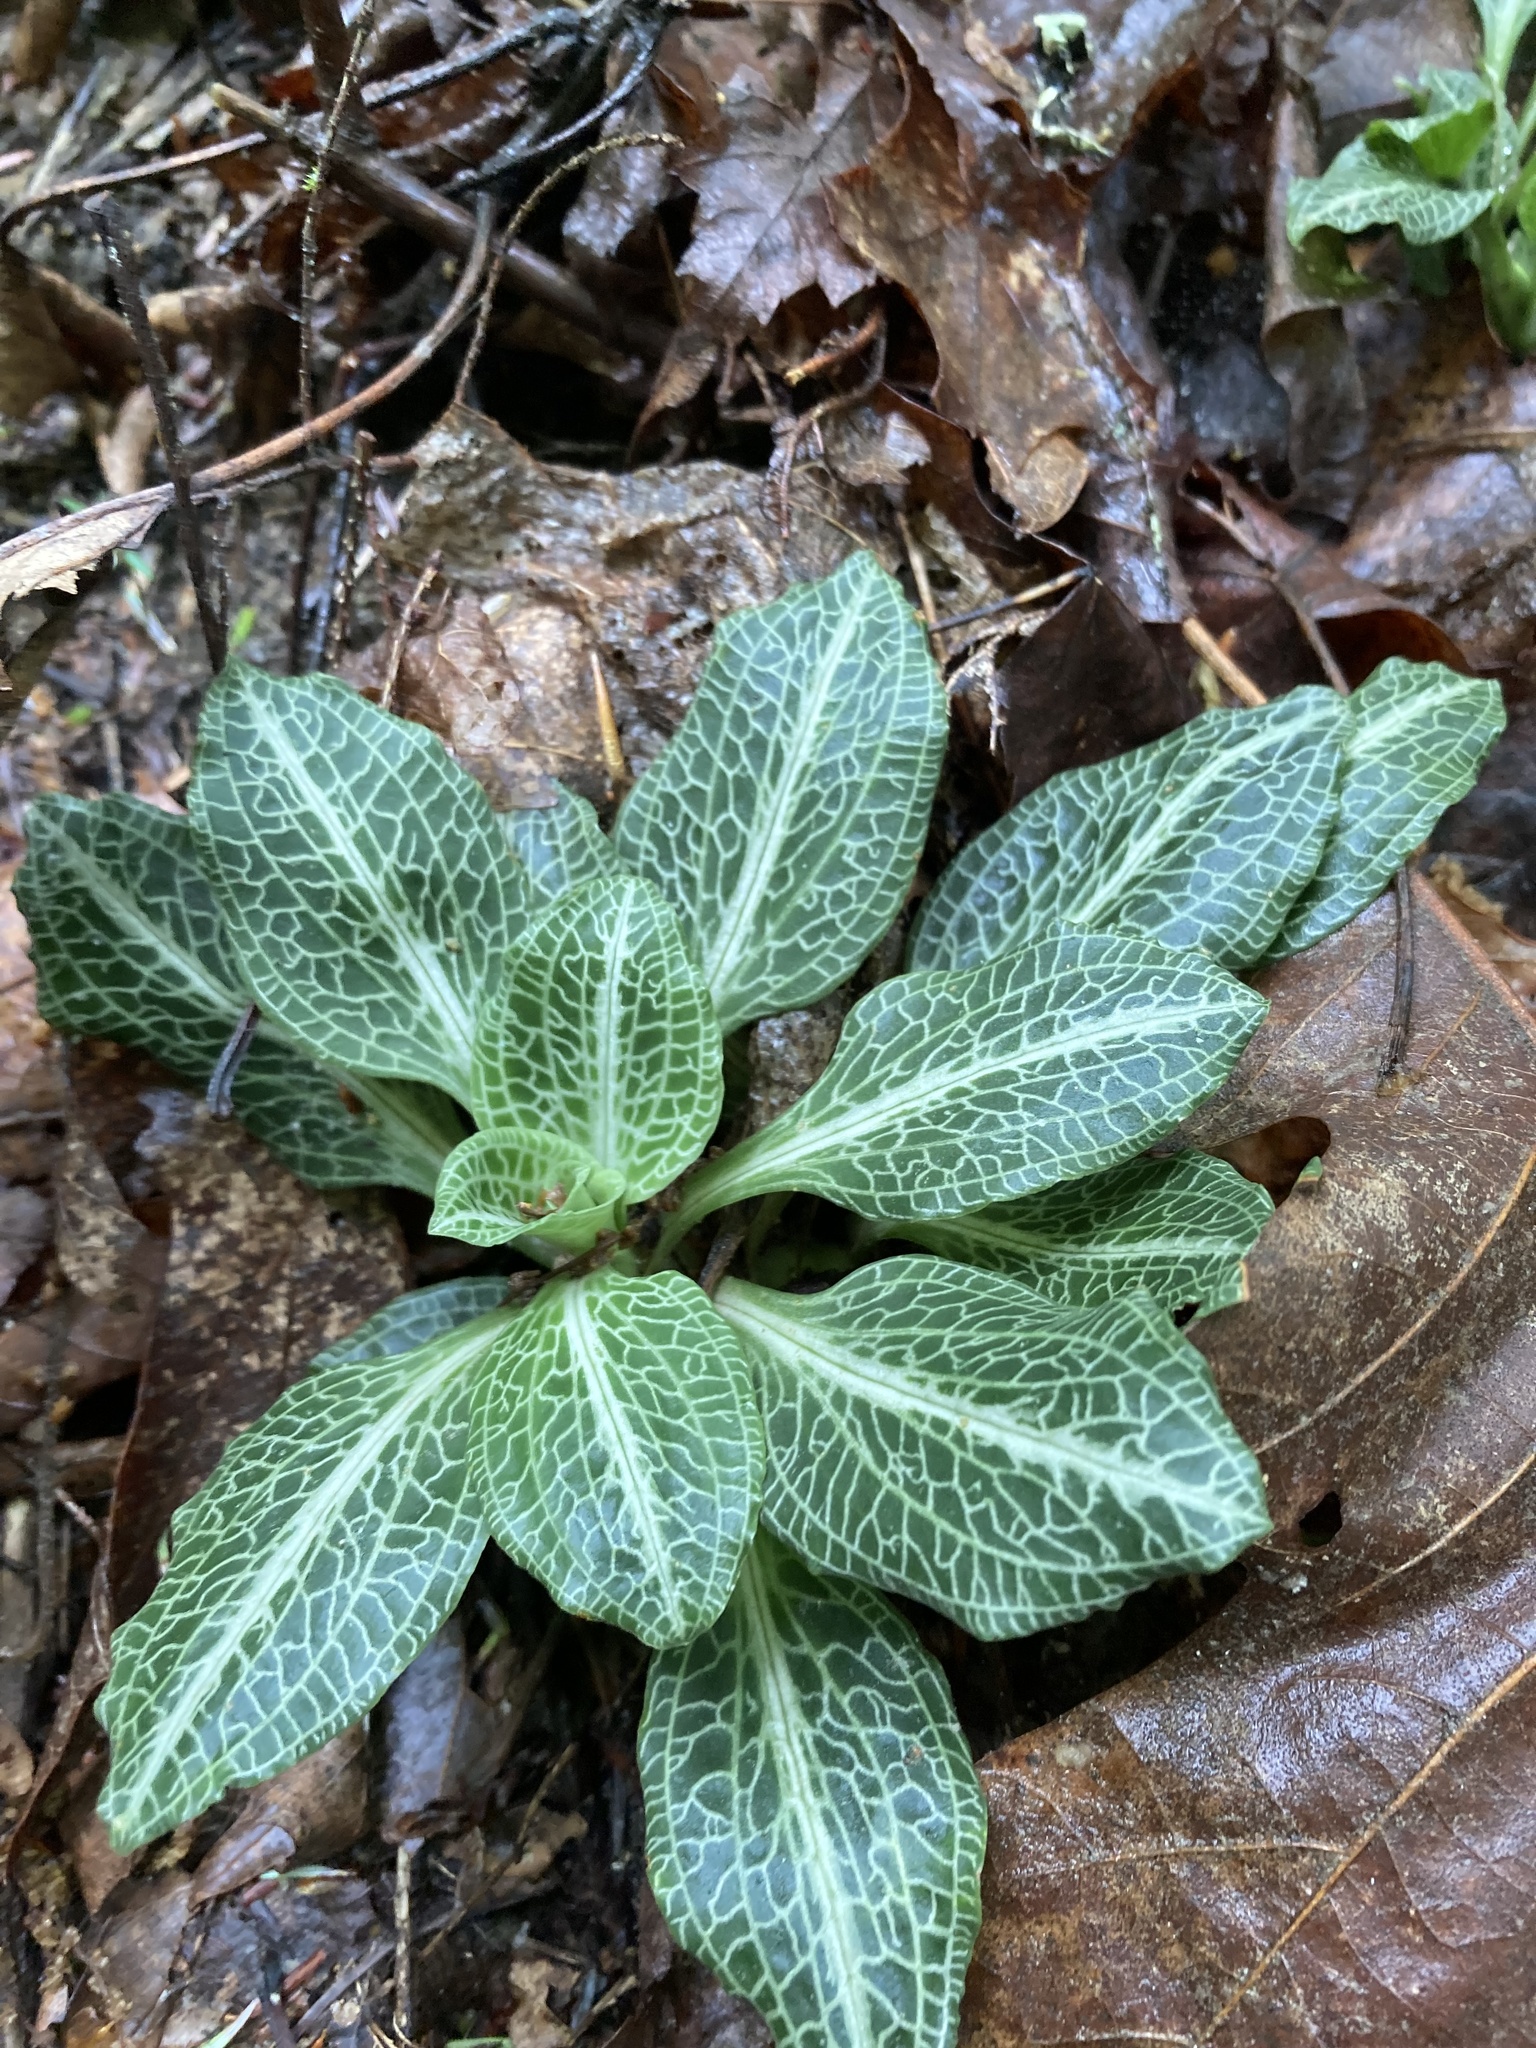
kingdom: Plantae
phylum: Tracheophyta
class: Liliopsida
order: Asparagales
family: Orchidaceae
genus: Goodyera
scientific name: Goodyera pubescens
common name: Downy rattlesnake-plantain
